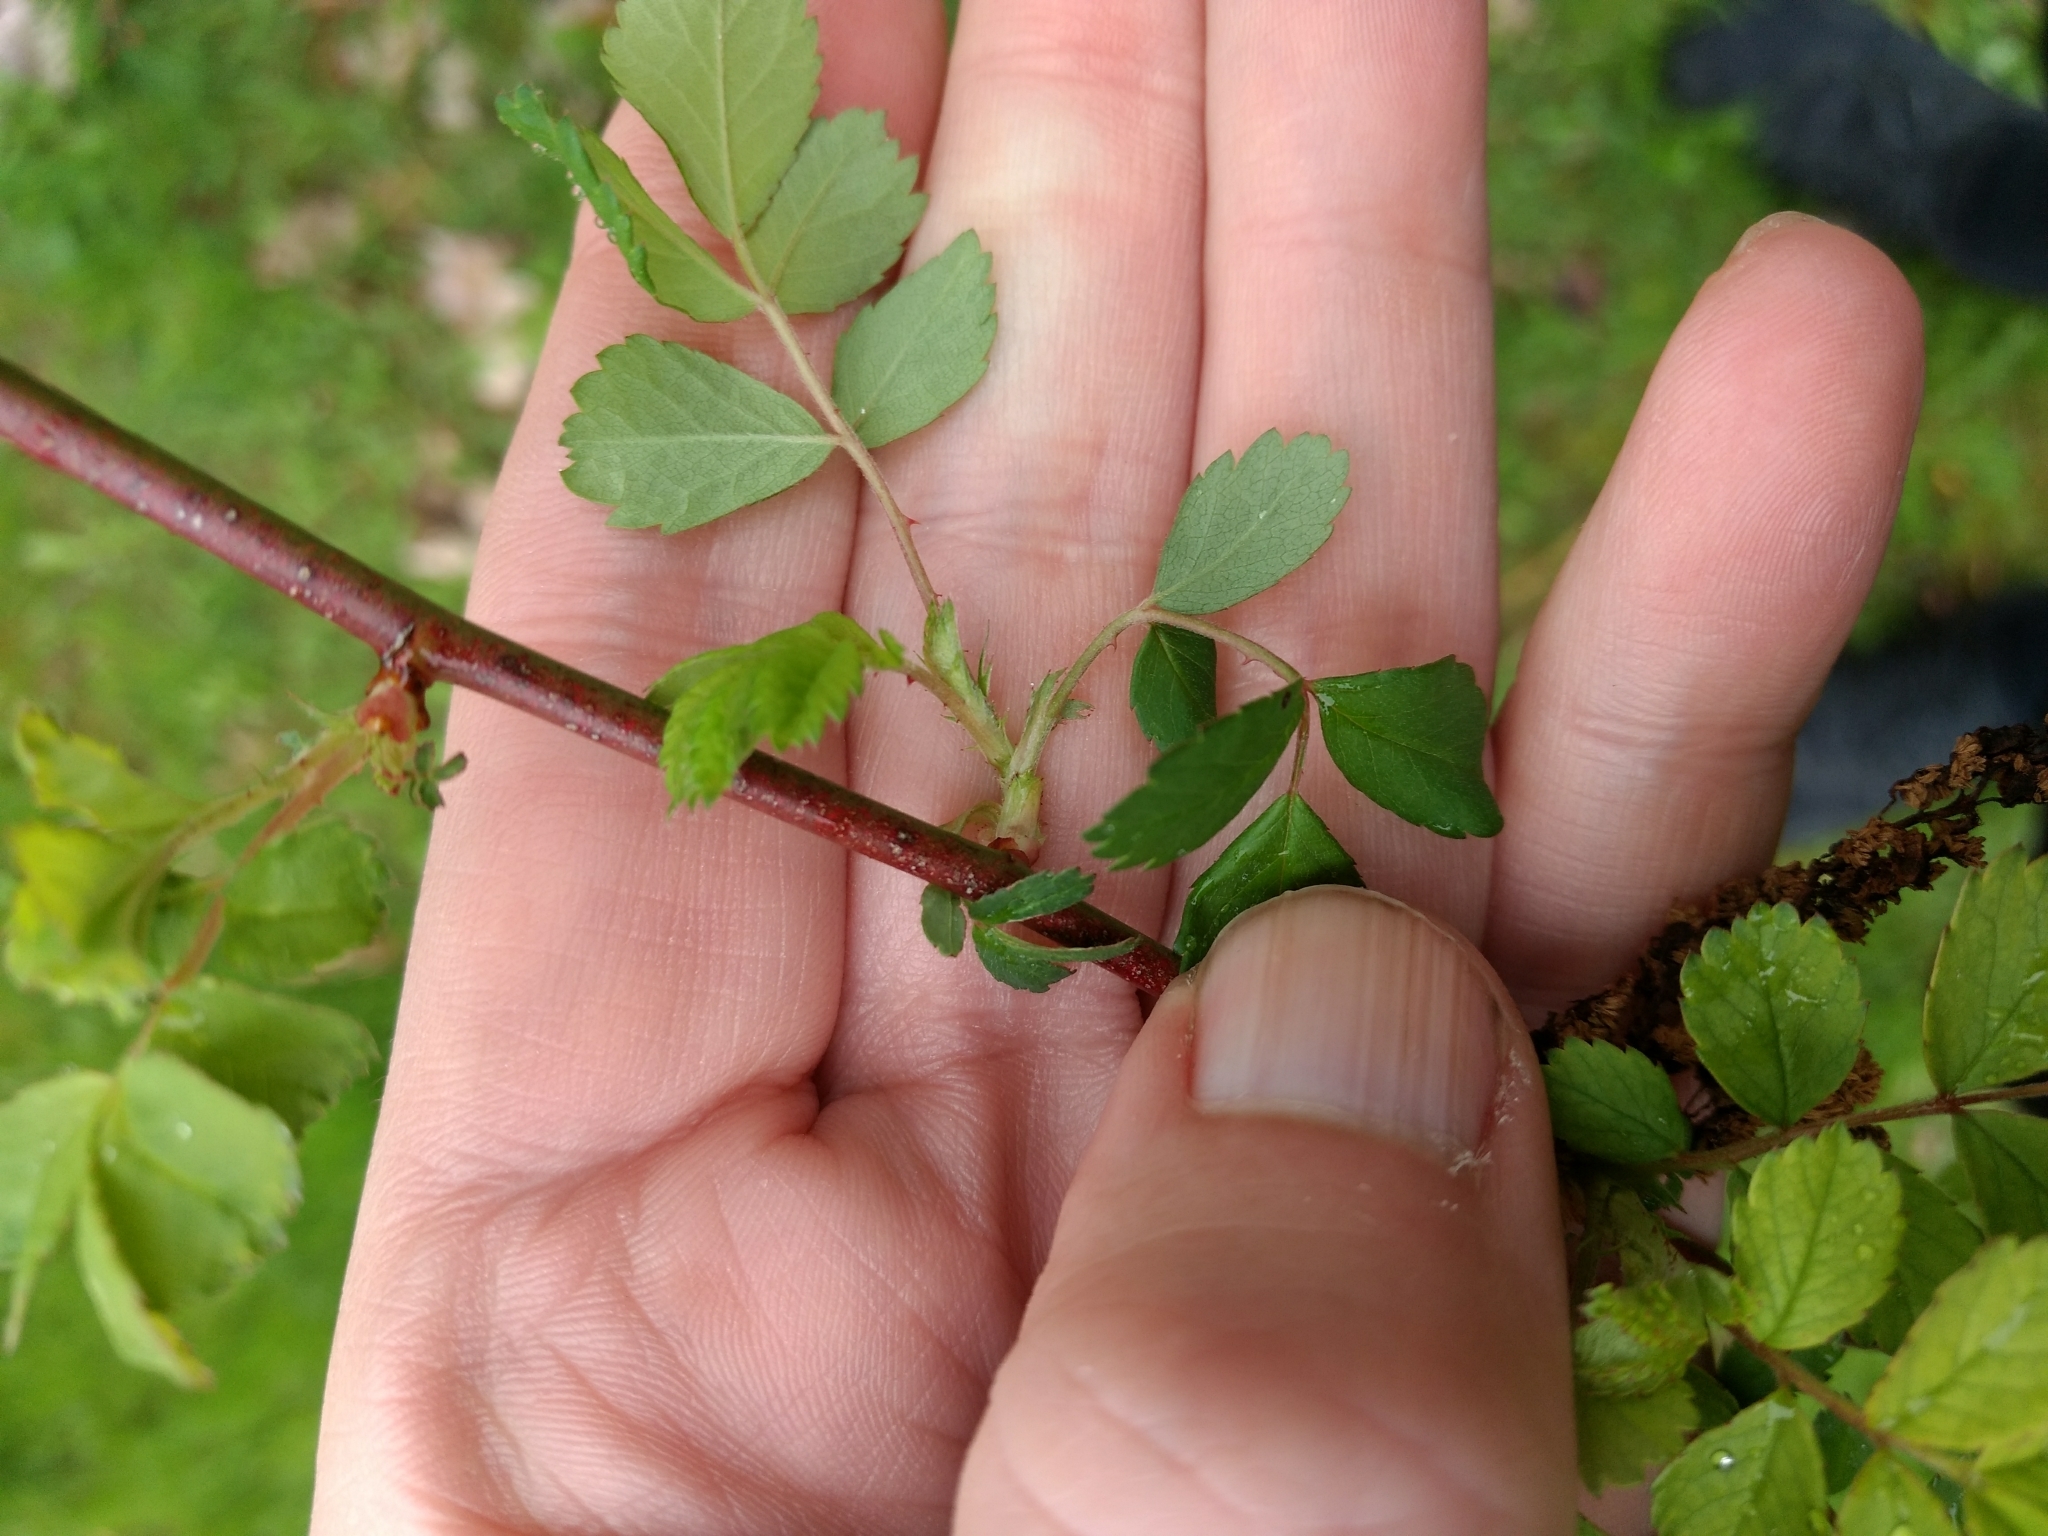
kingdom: Plantae
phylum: Tracheophyta
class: Magnoliopsida
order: Rosales
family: Rosaceae
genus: Rosa
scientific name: Rosa multiflora
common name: Multiflora rose
